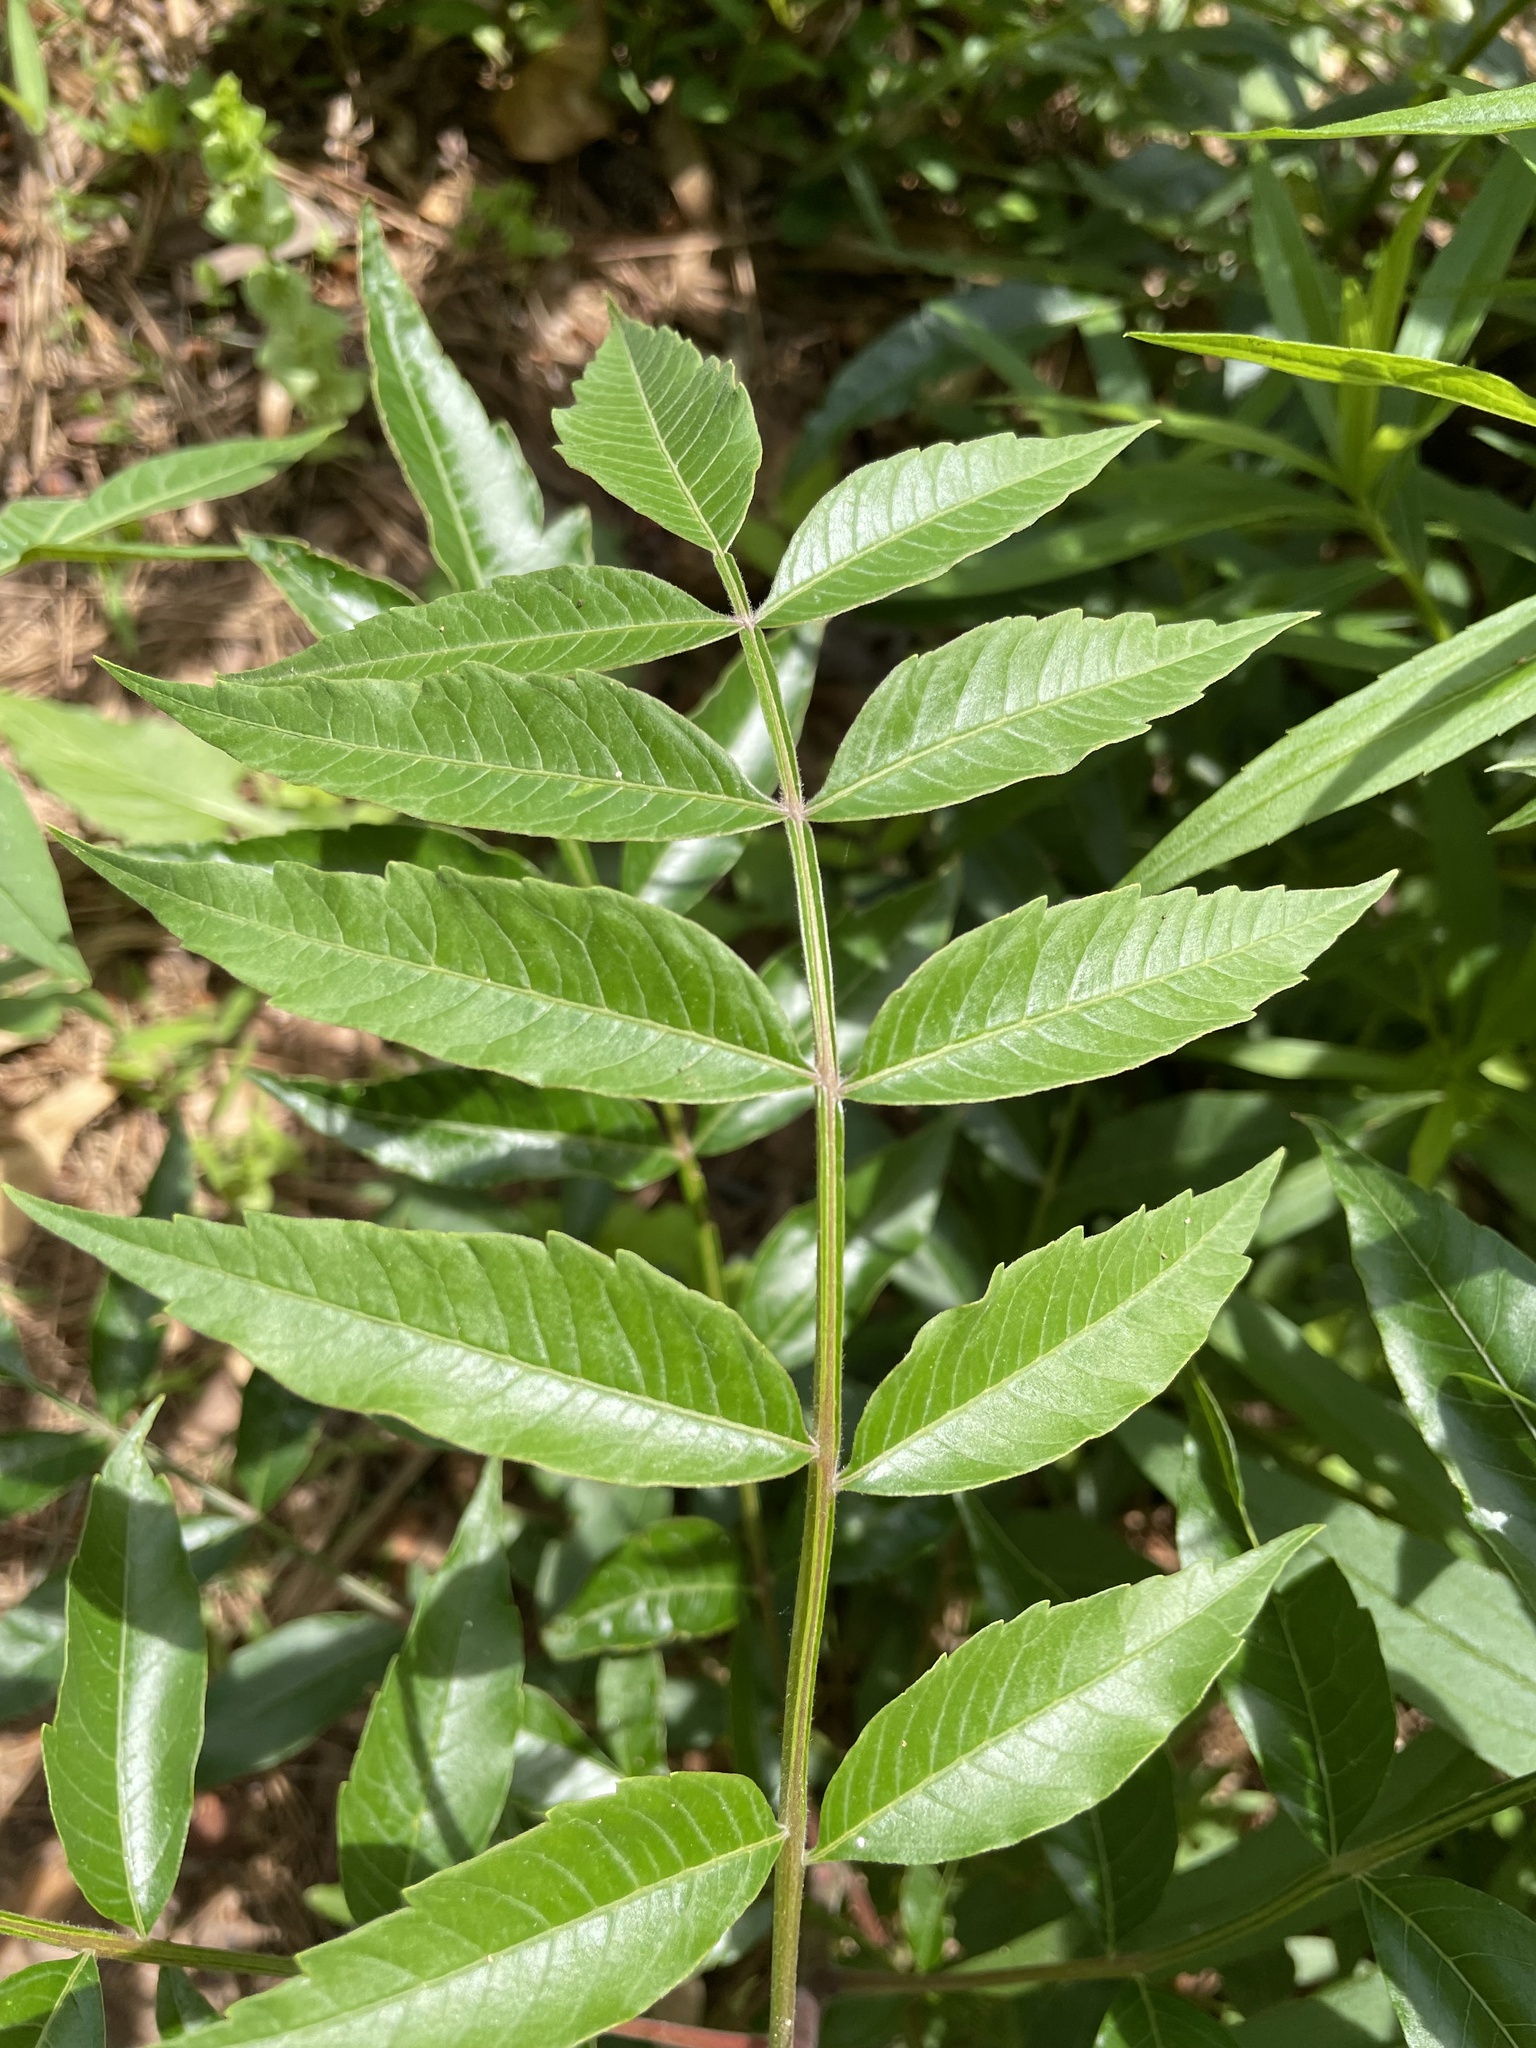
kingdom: Plantae
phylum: Tracheophyta
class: Magnoliopsida
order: Sapindales
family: Anacardiaceae
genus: Rhus
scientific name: Rhus copallina
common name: Shining sumac
